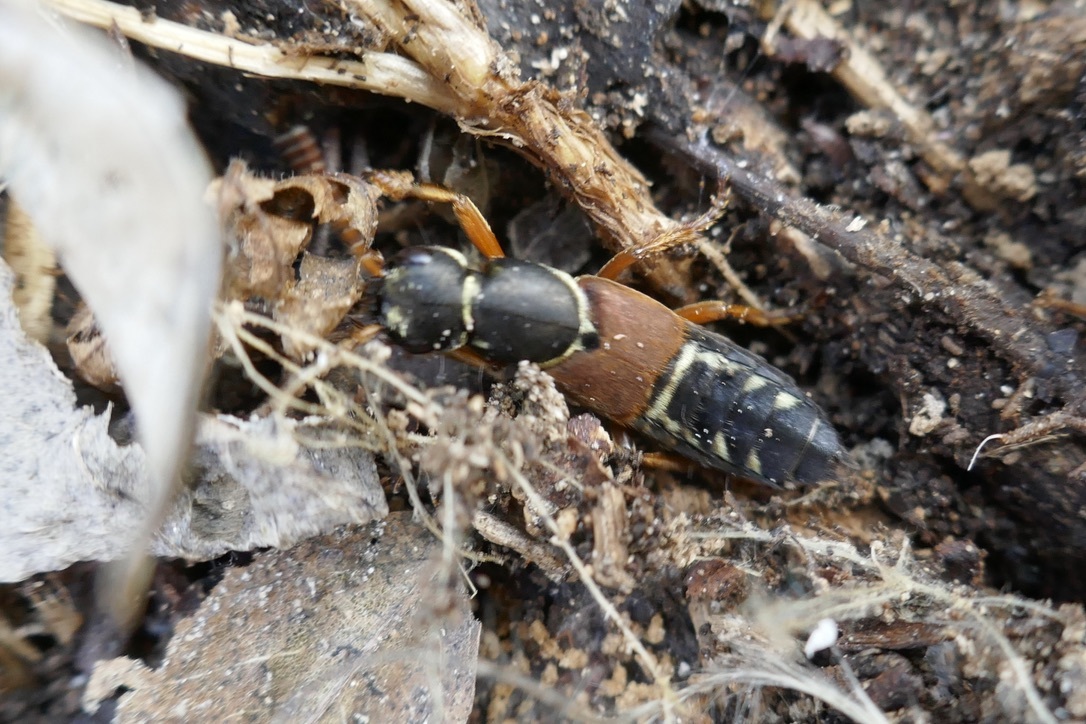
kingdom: Animalia
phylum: Arthropoda
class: Insecta
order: Coleoptera
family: Staphylinidae
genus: Staphylinus
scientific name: Staphylinus caesareus
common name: Staph beetle
